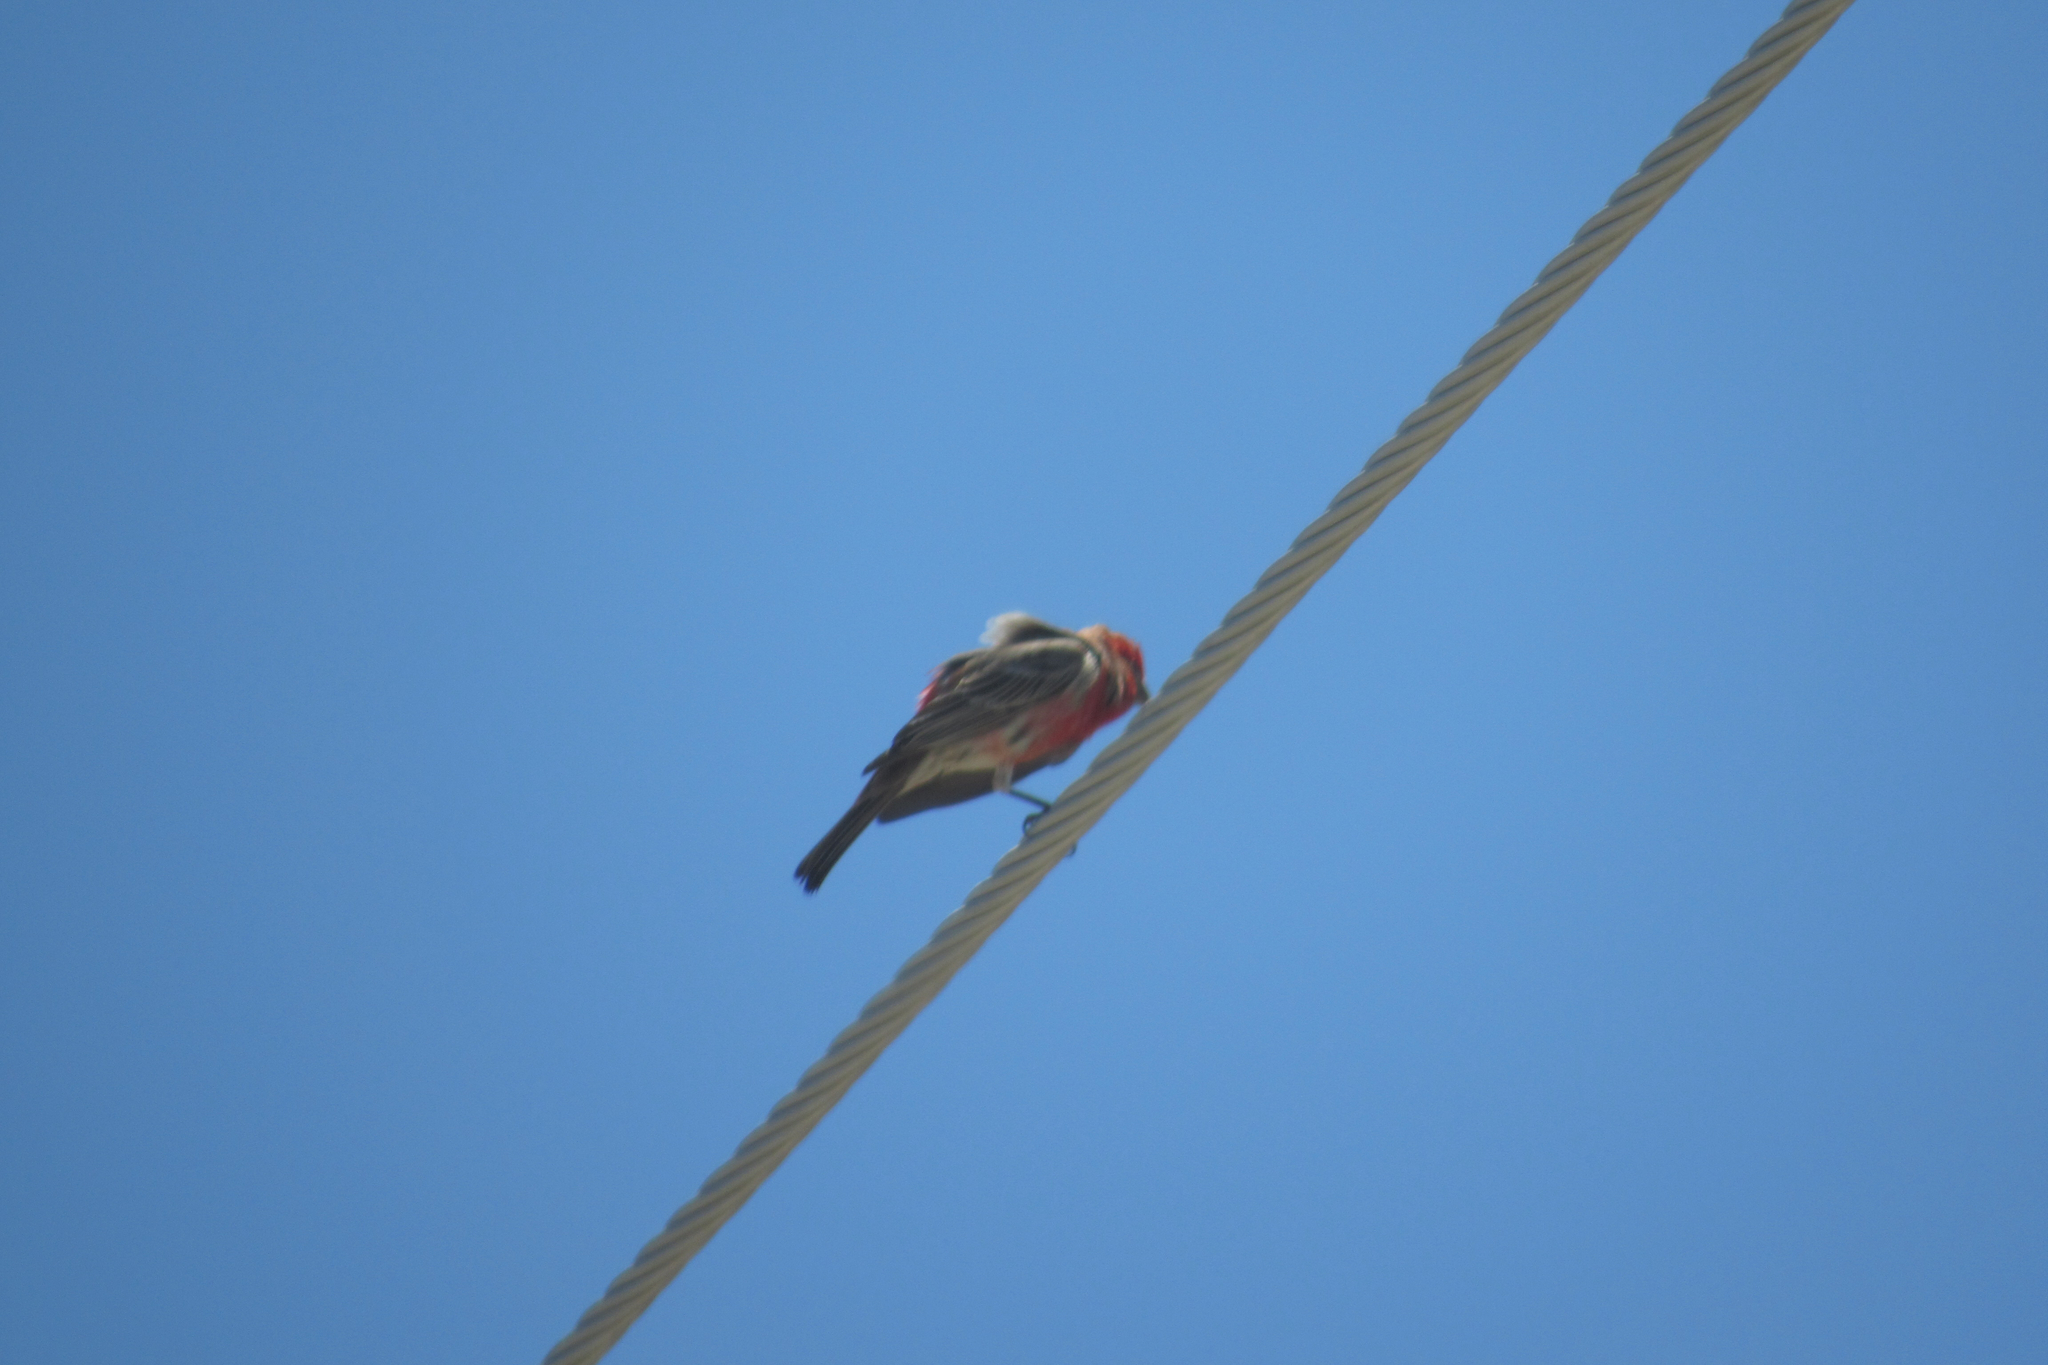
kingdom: Animalia
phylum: Chordata
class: Aves
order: Passeriformes
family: Fringillidae
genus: Haemorhous
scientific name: Haemorhous mexicanus
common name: House finch
